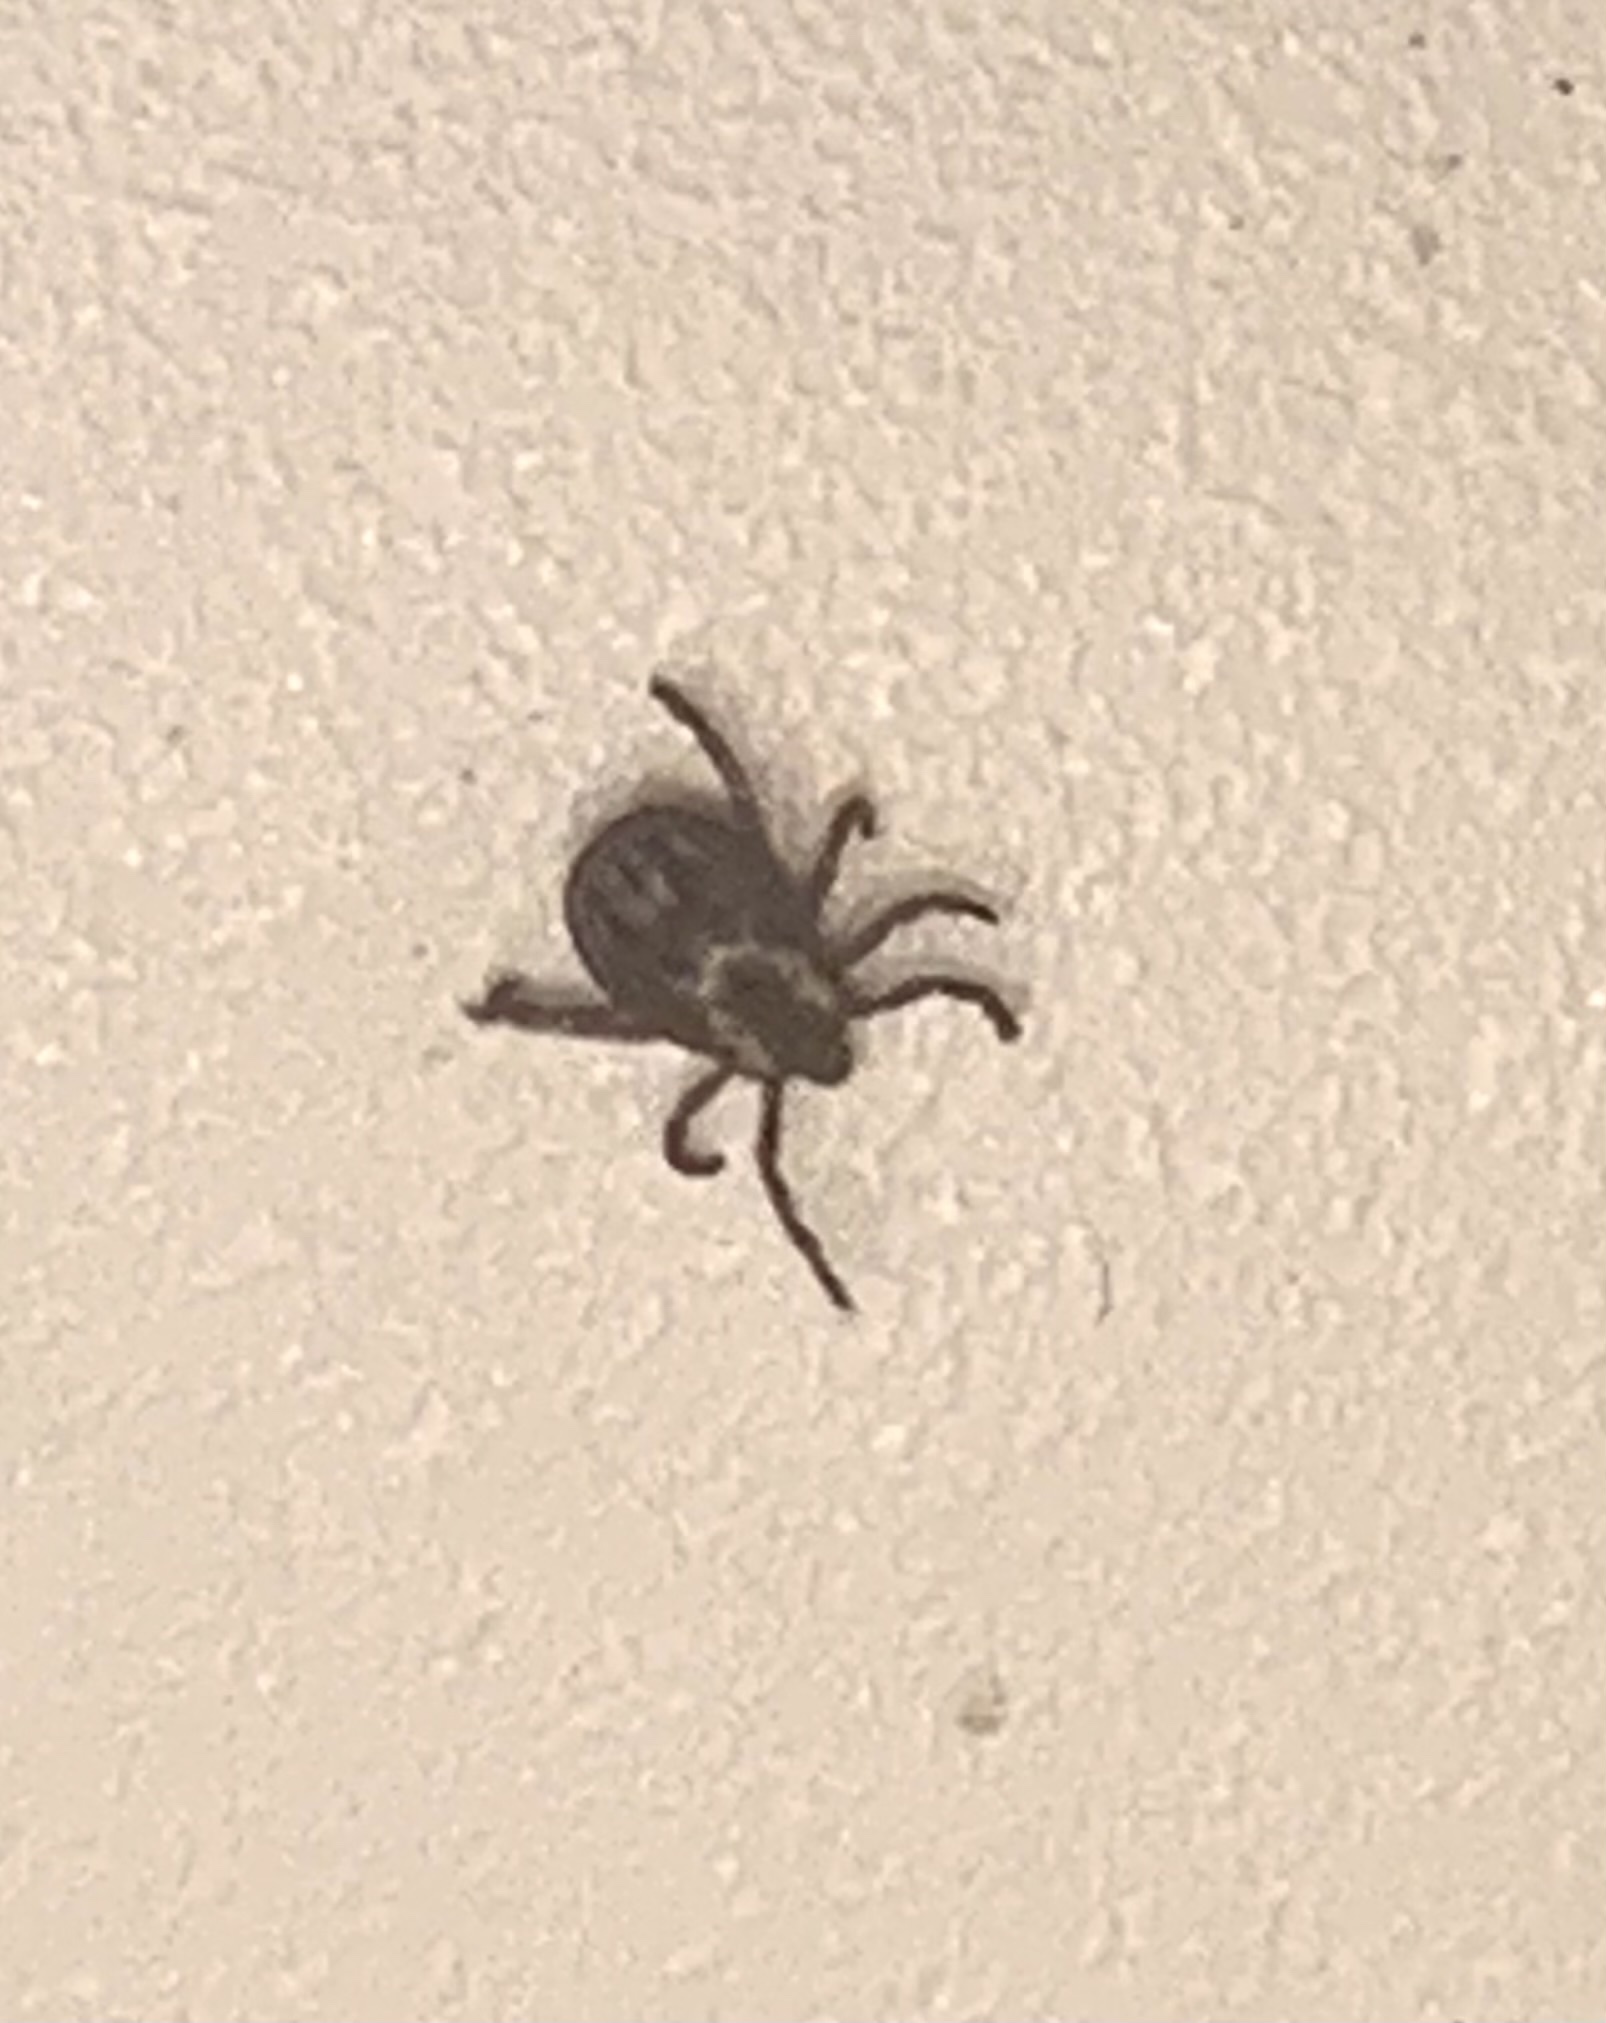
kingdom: Animalia
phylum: Arthropoda
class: Arachnida
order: Ixodida
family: Ixodidae
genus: Dermacentor
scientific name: Dermacentor variabilis
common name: American dog tick
